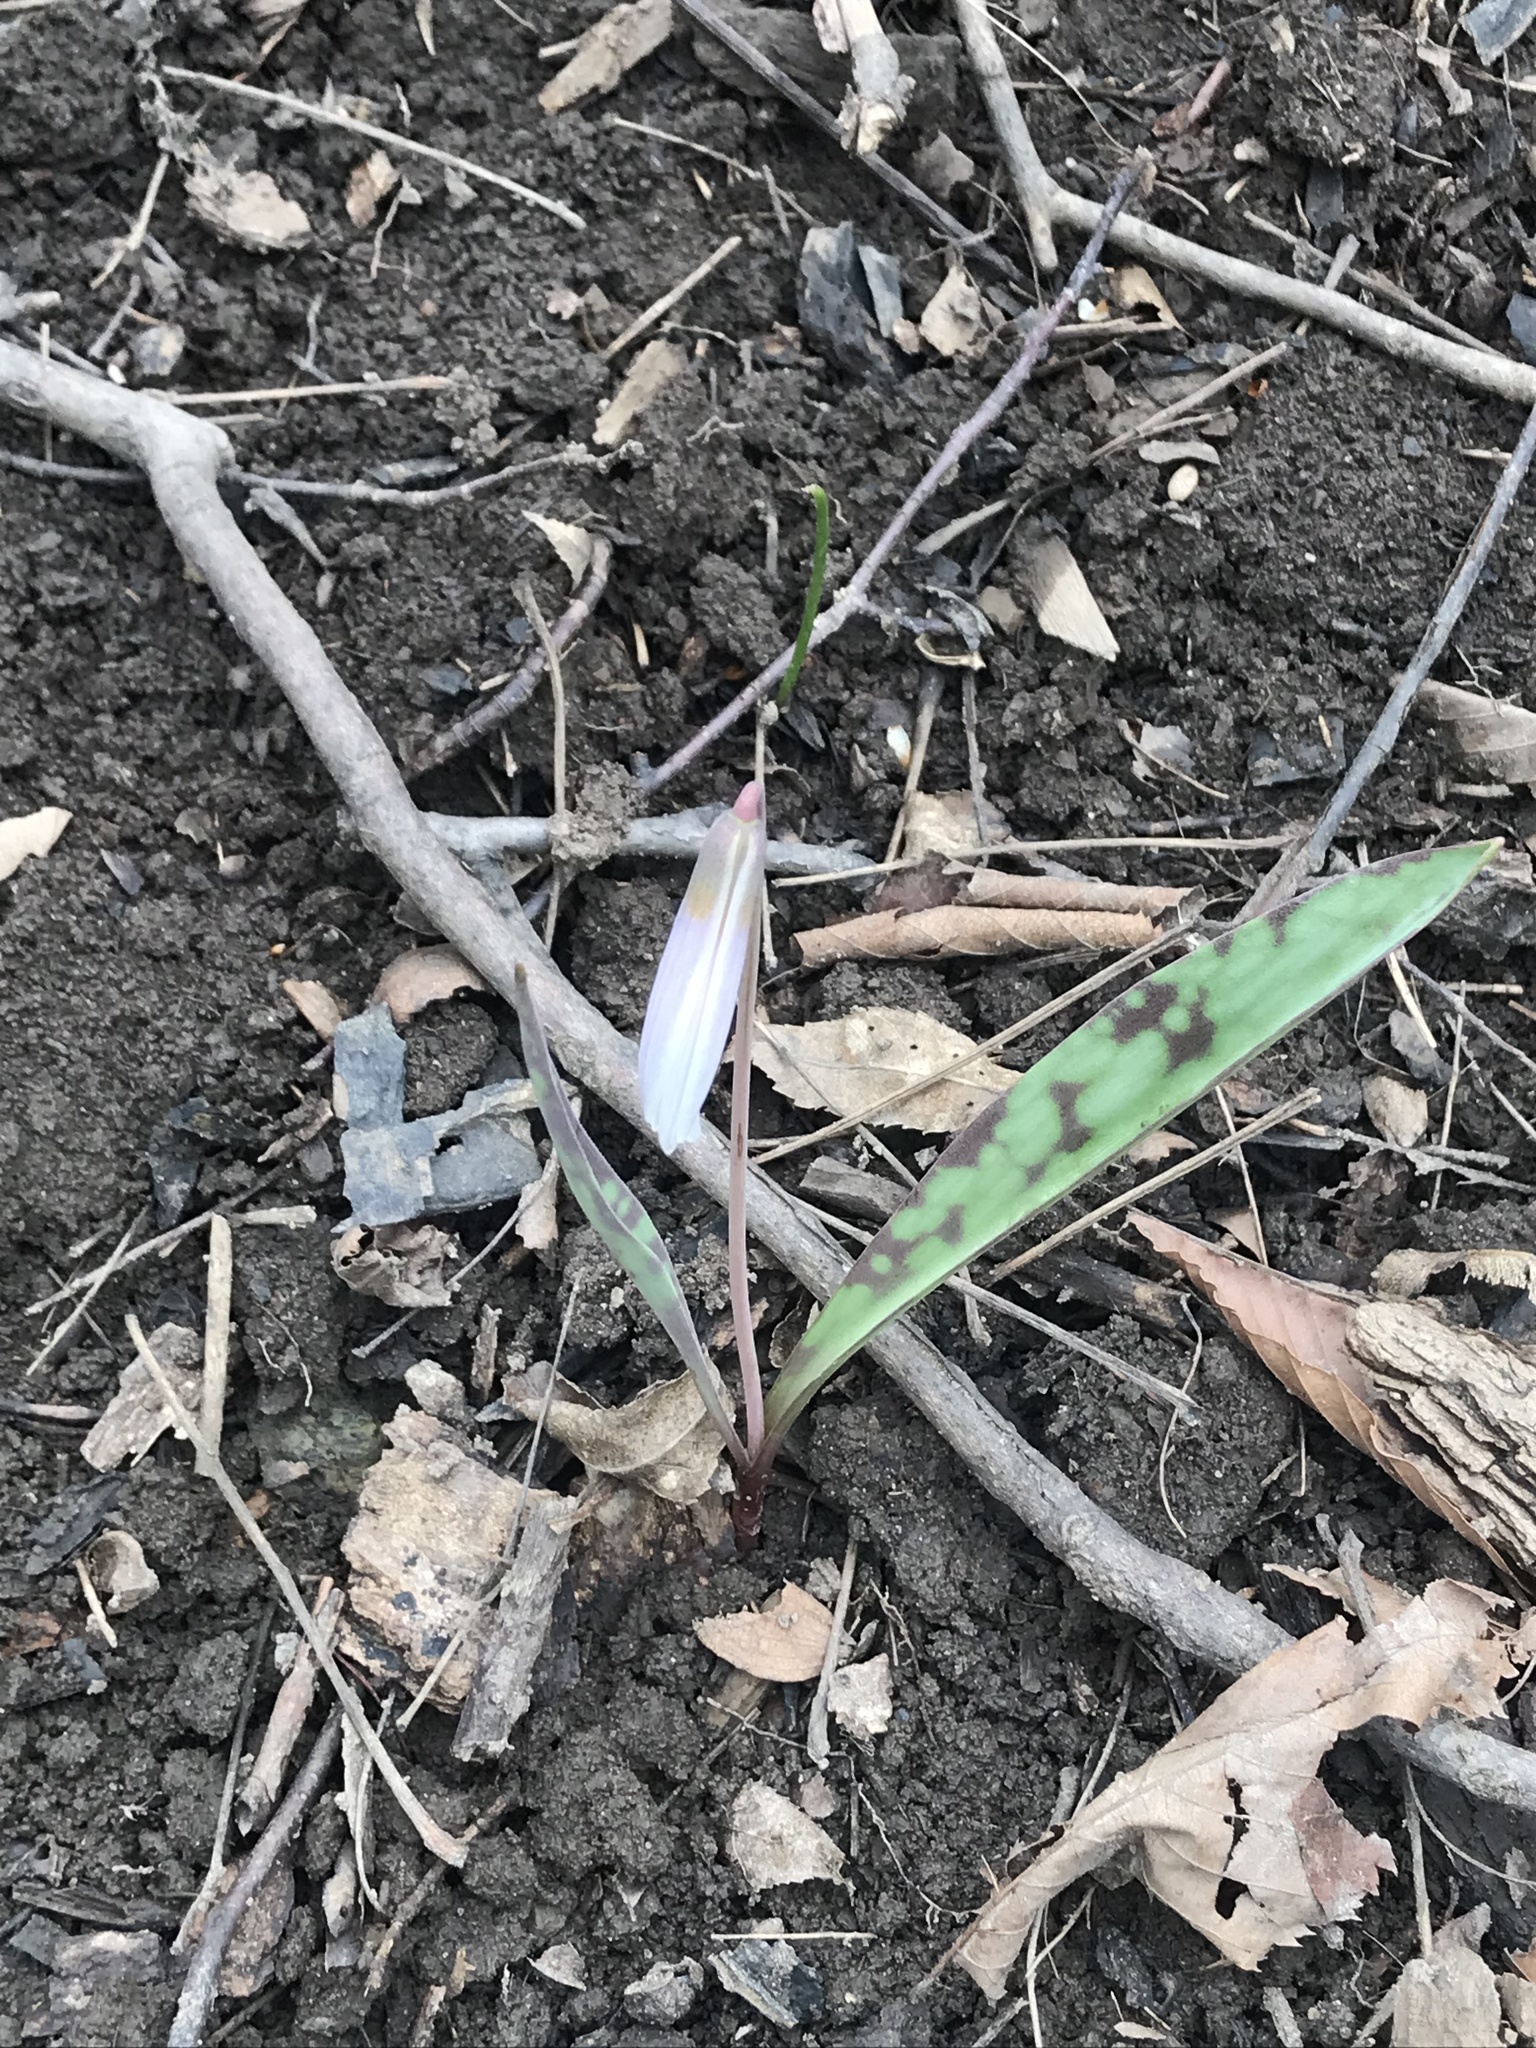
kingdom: Plantae
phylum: Tracheophyta
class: Liliopsida
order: Liliales
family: Liliaceae
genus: Erythronium
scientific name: Erythronium albidum
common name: White trout-lily
